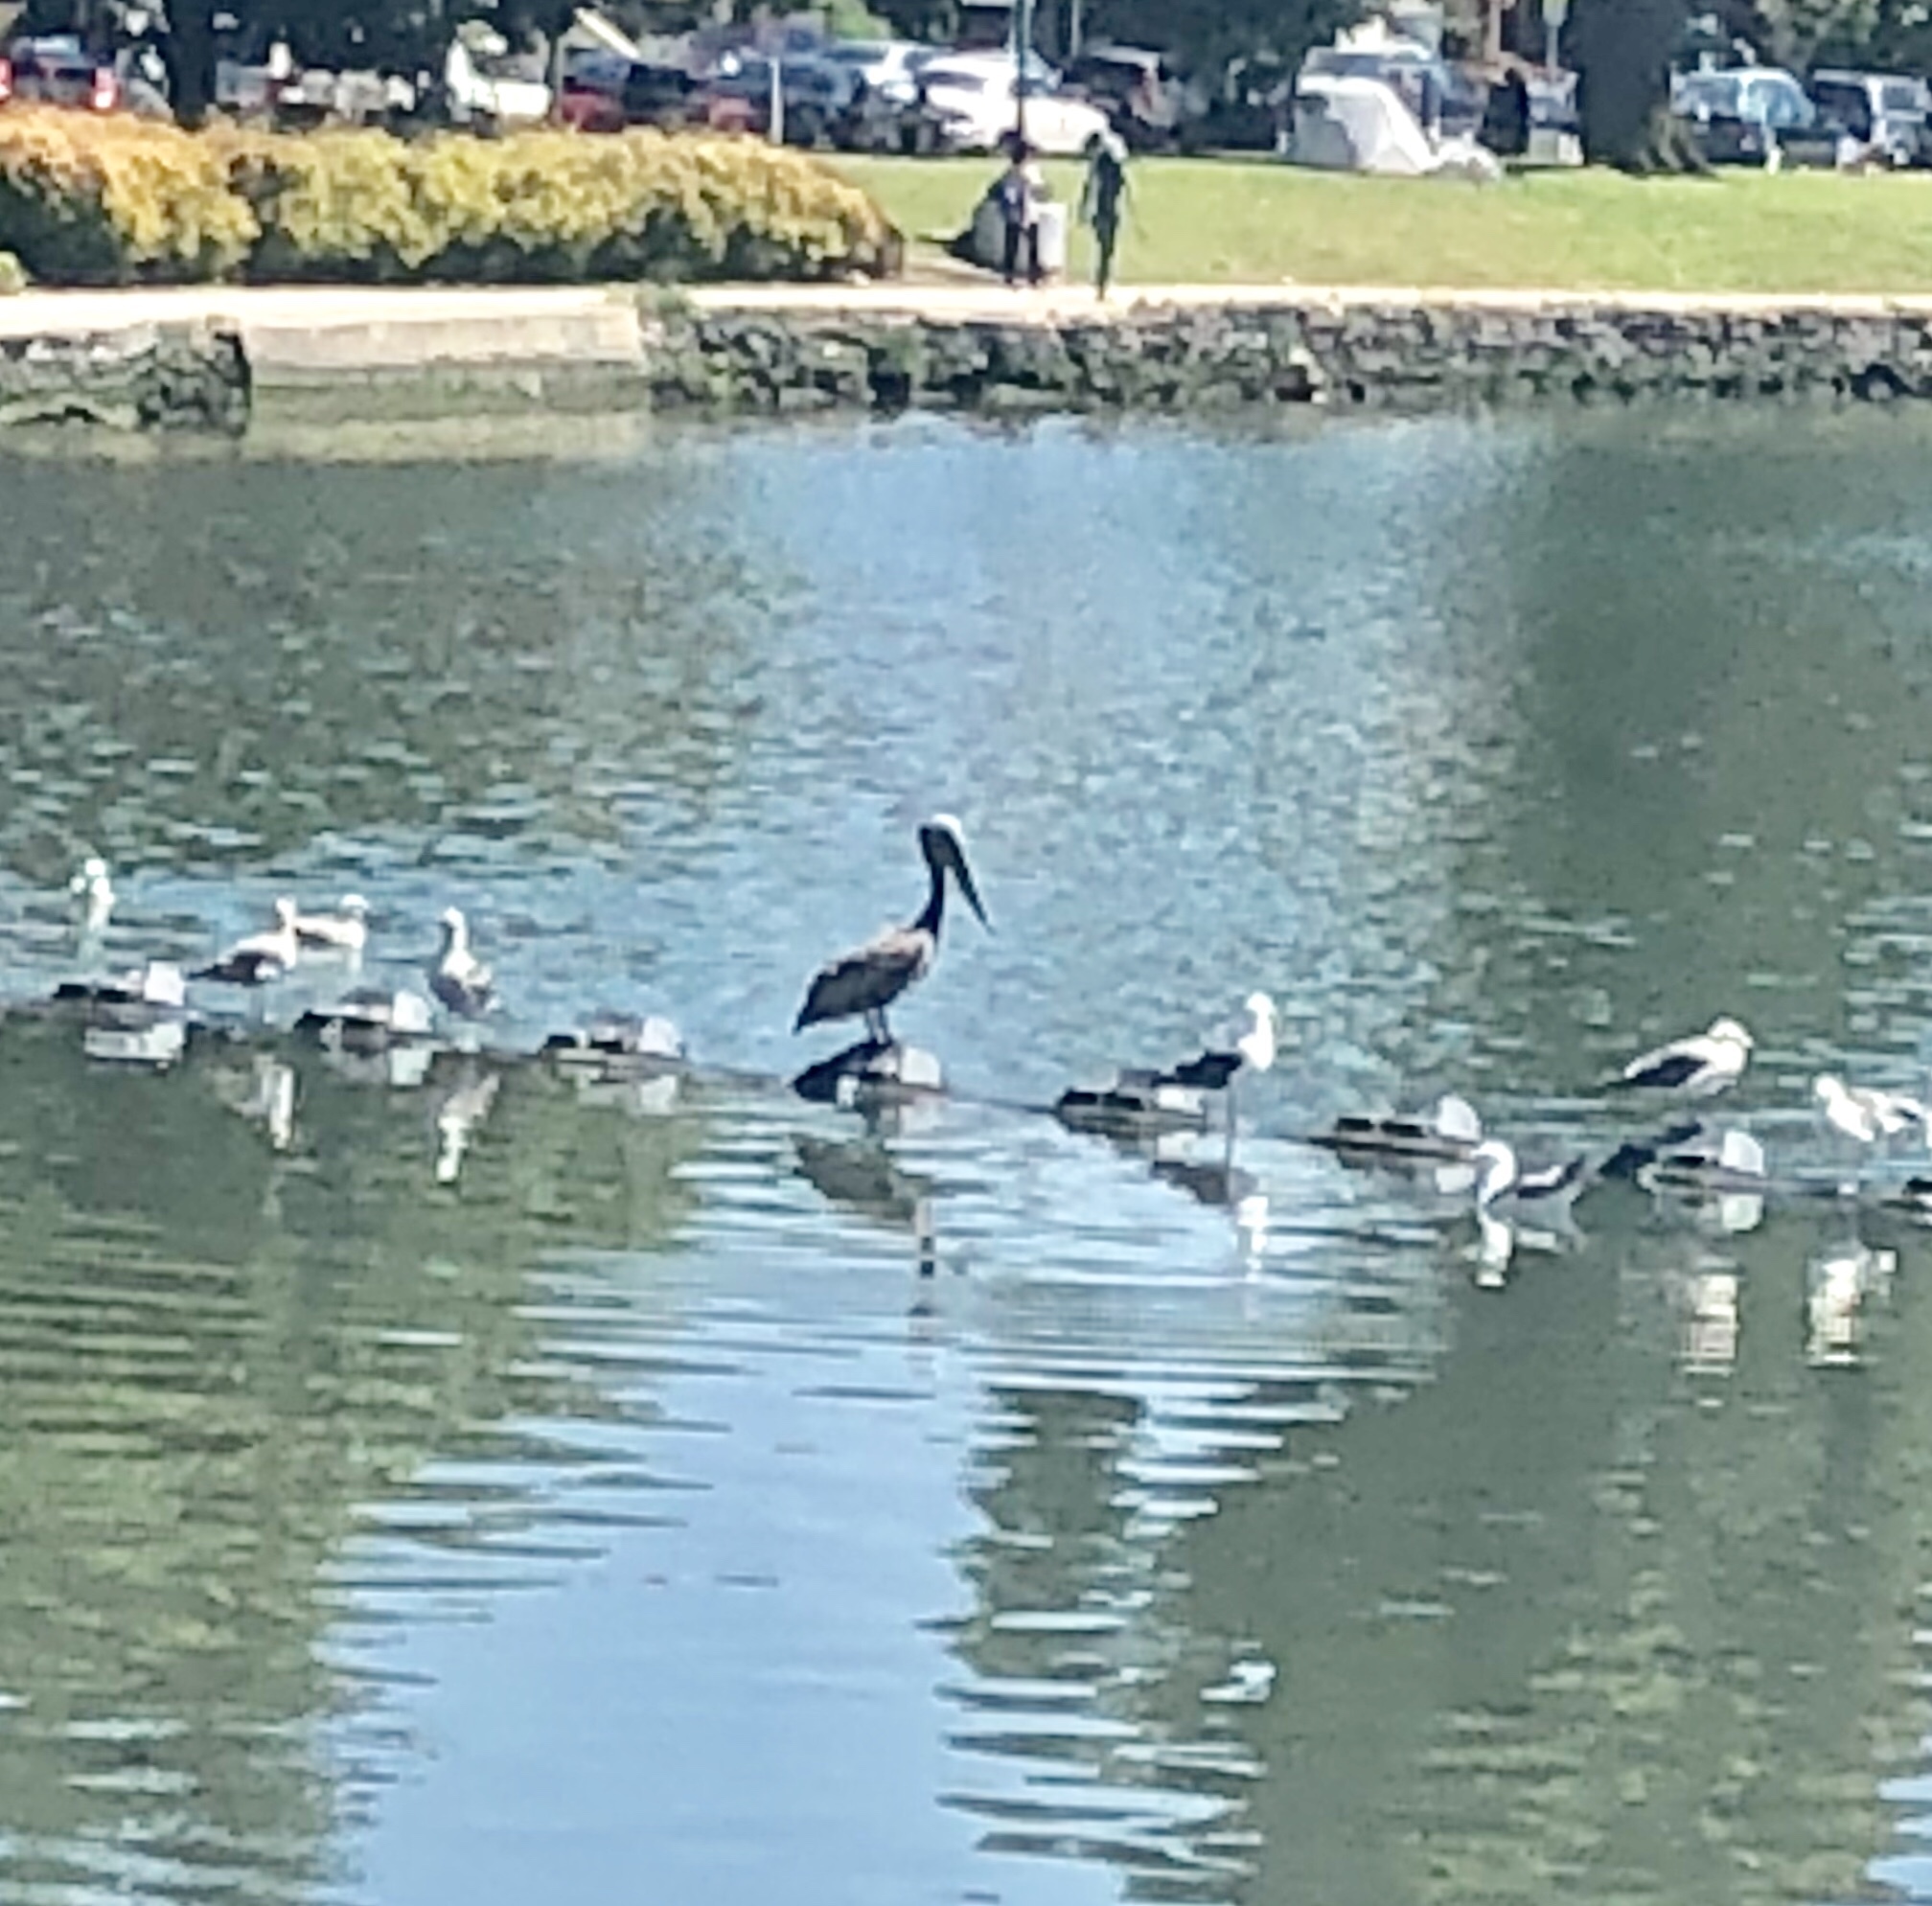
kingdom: Animalia
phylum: Chordata
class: Aves
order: Pelecaniformes
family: Pelecanidae
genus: Pelecanus
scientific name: Pelecanus occidentalis
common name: Brown pelican
